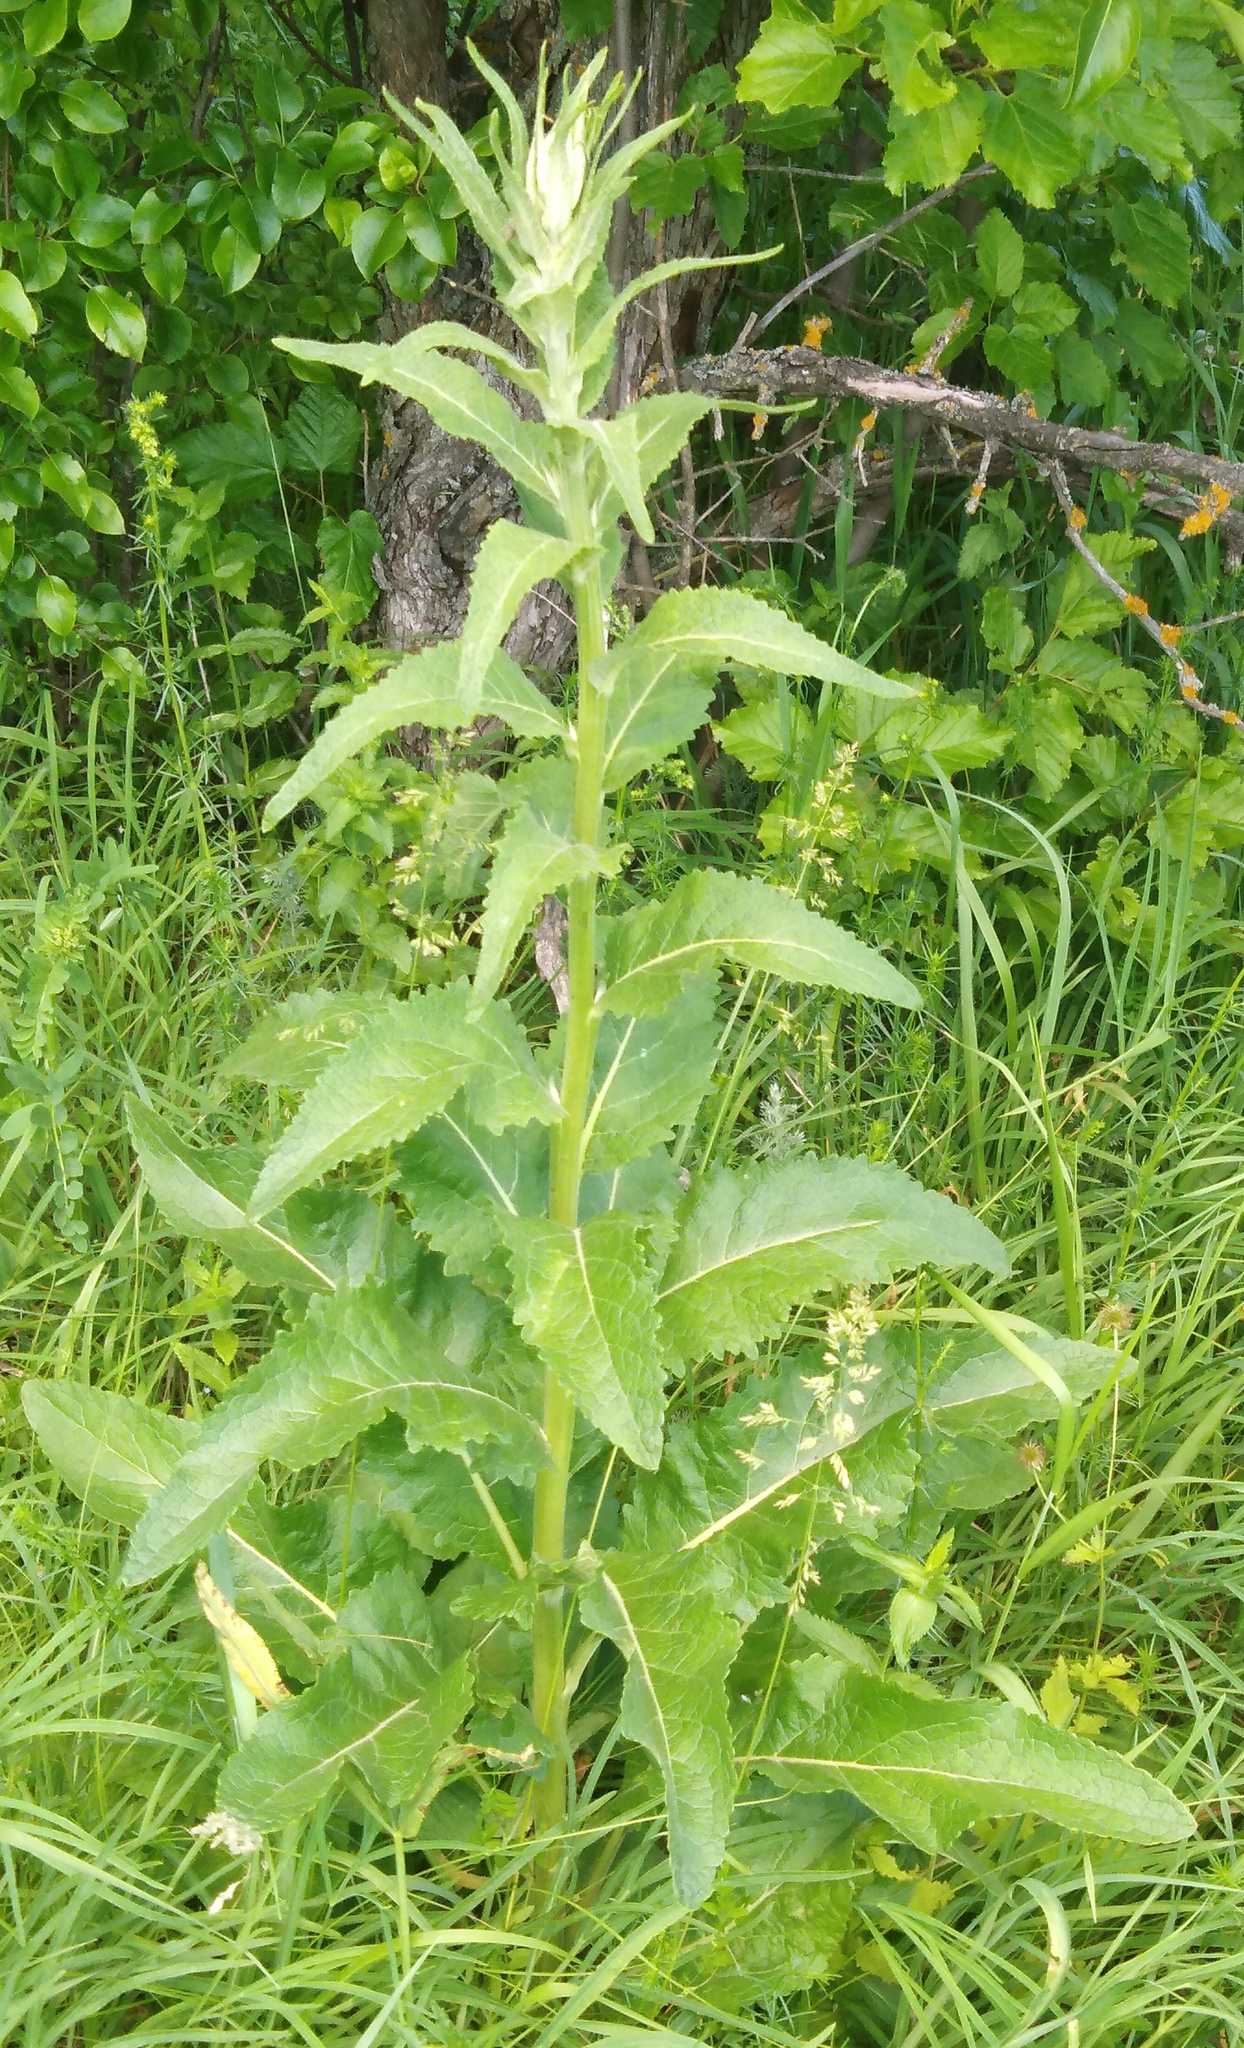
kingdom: Plantae
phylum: Tracheophyta
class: Magnoliopsida
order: Lamiales
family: Scrophulariaceae
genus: Verbascum
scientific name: Verbascum lychnitis
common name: White mullein
